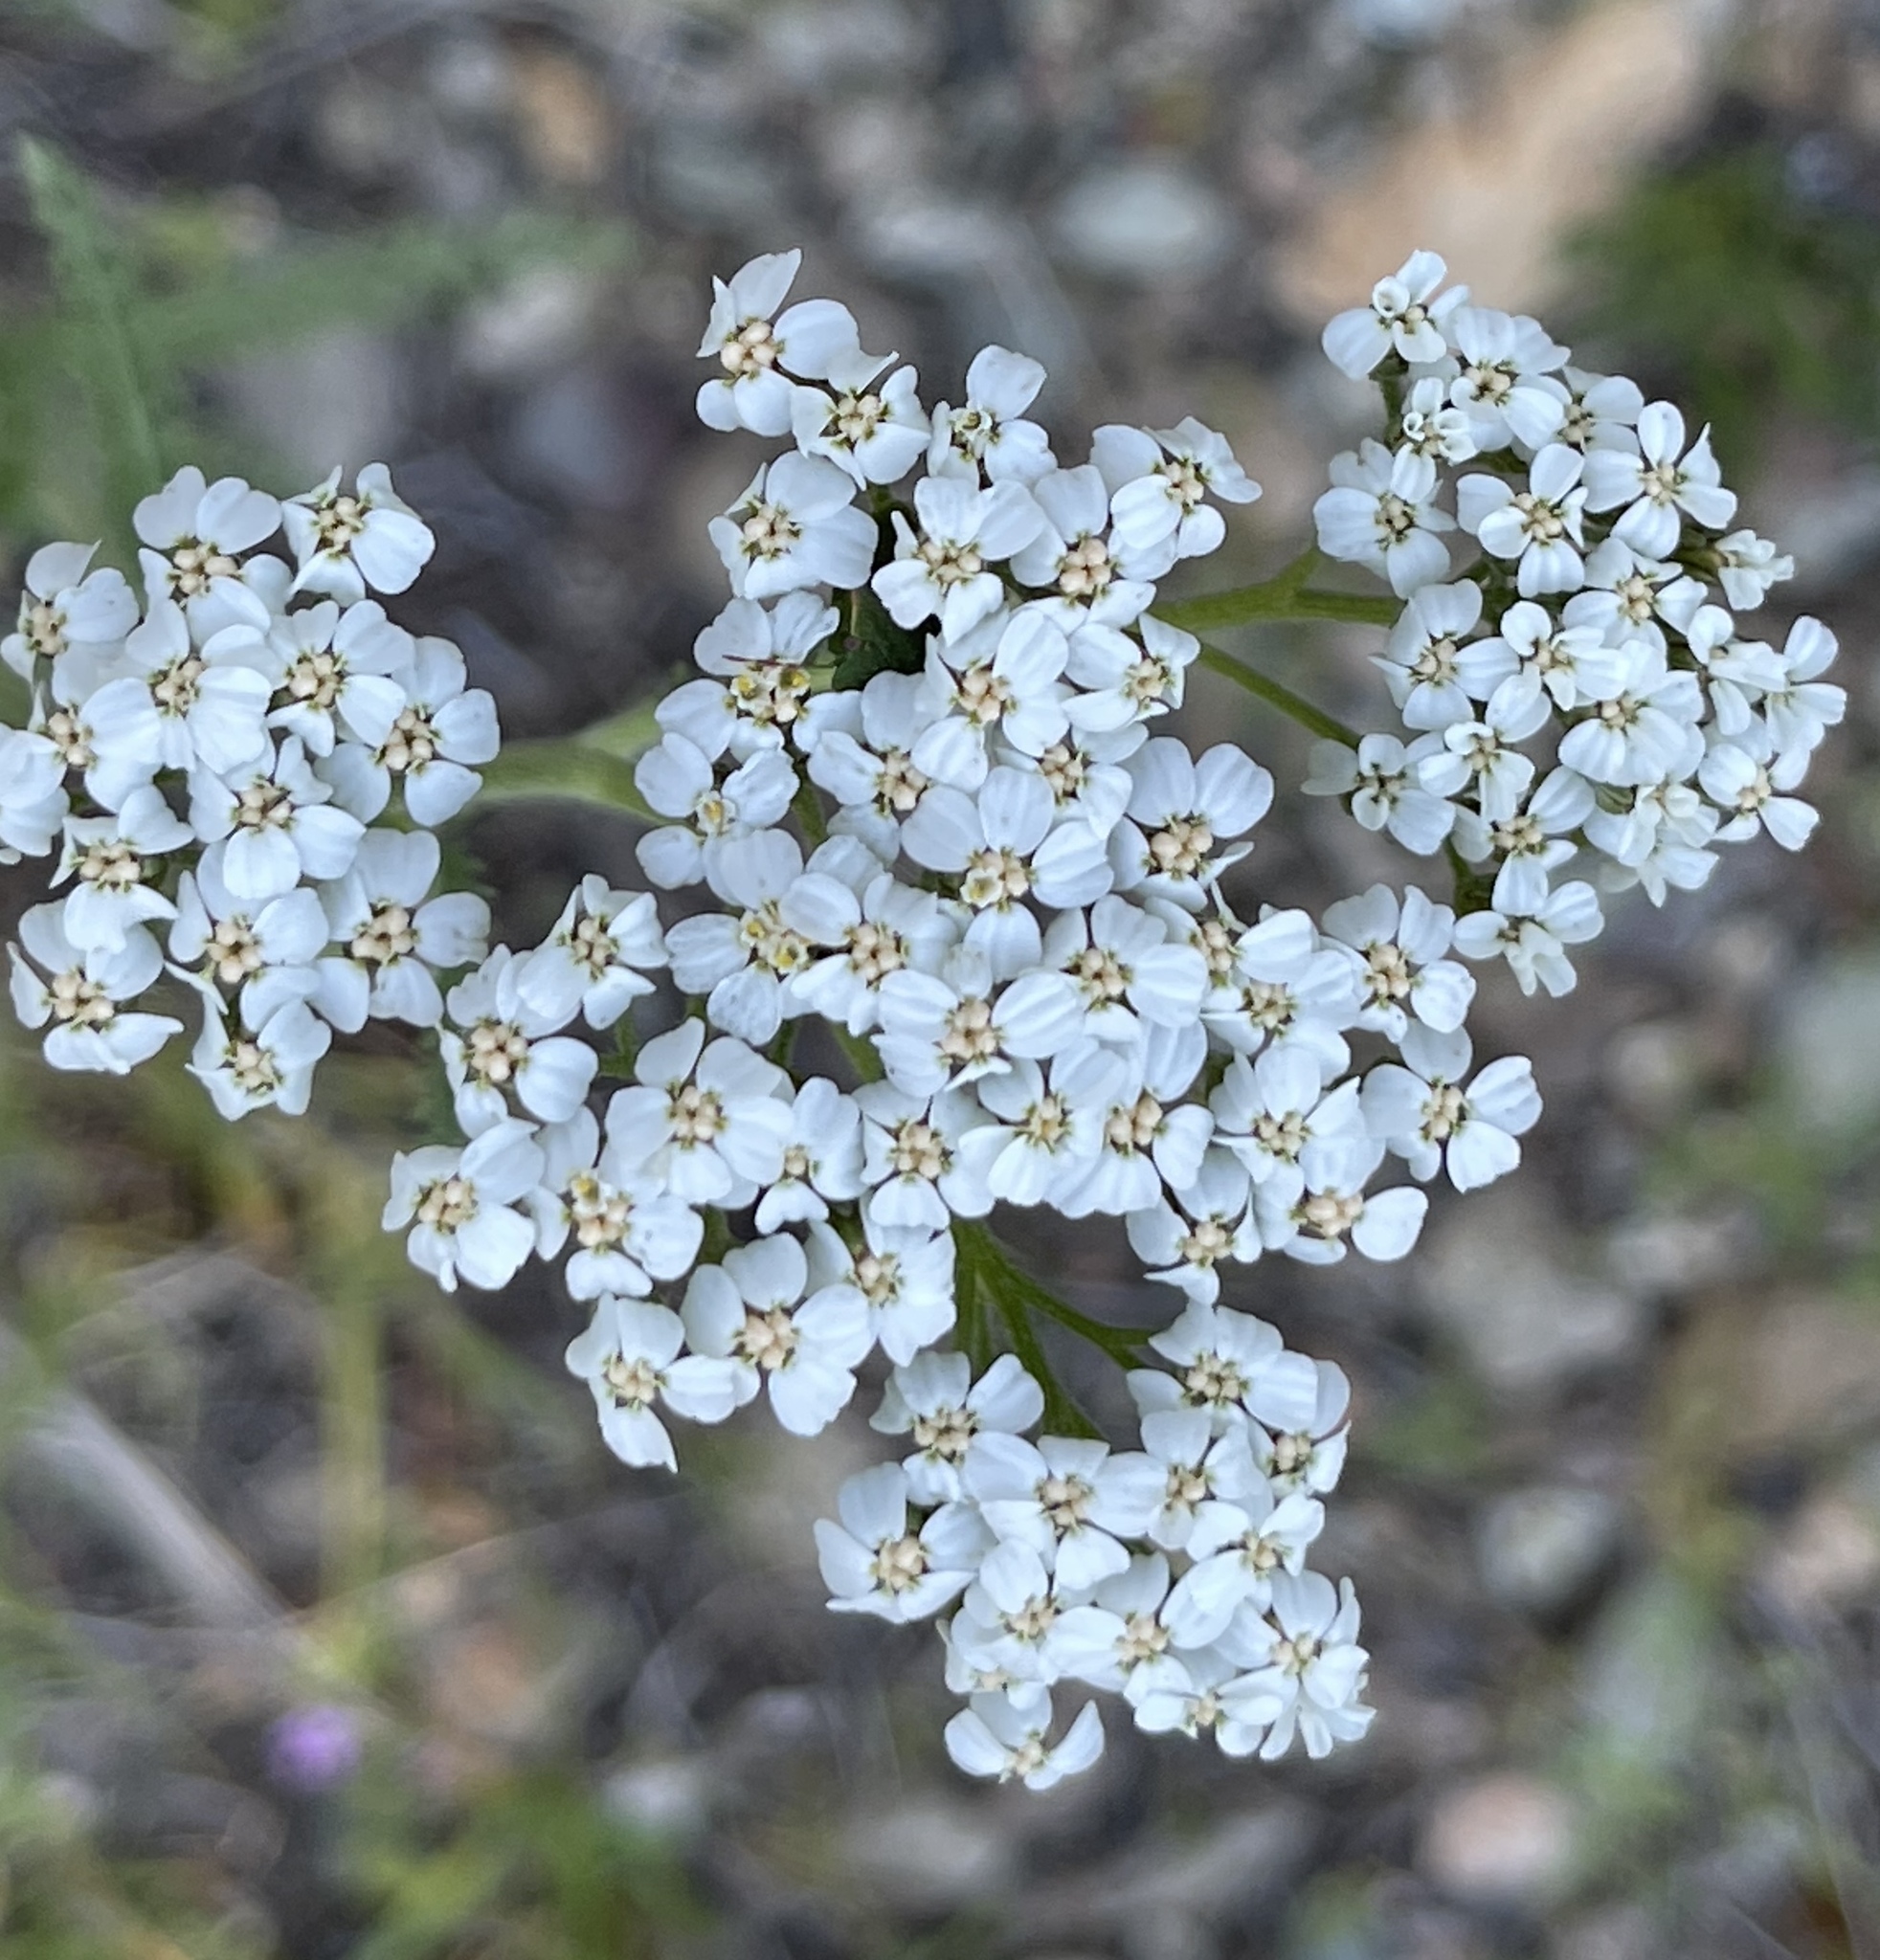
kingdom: Plantae
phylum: Tracheophyta
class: Magnoliopsida
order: Asterales
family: Asteraceae
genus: Achillea
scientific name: Achillea millefolium
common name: Yarrow
